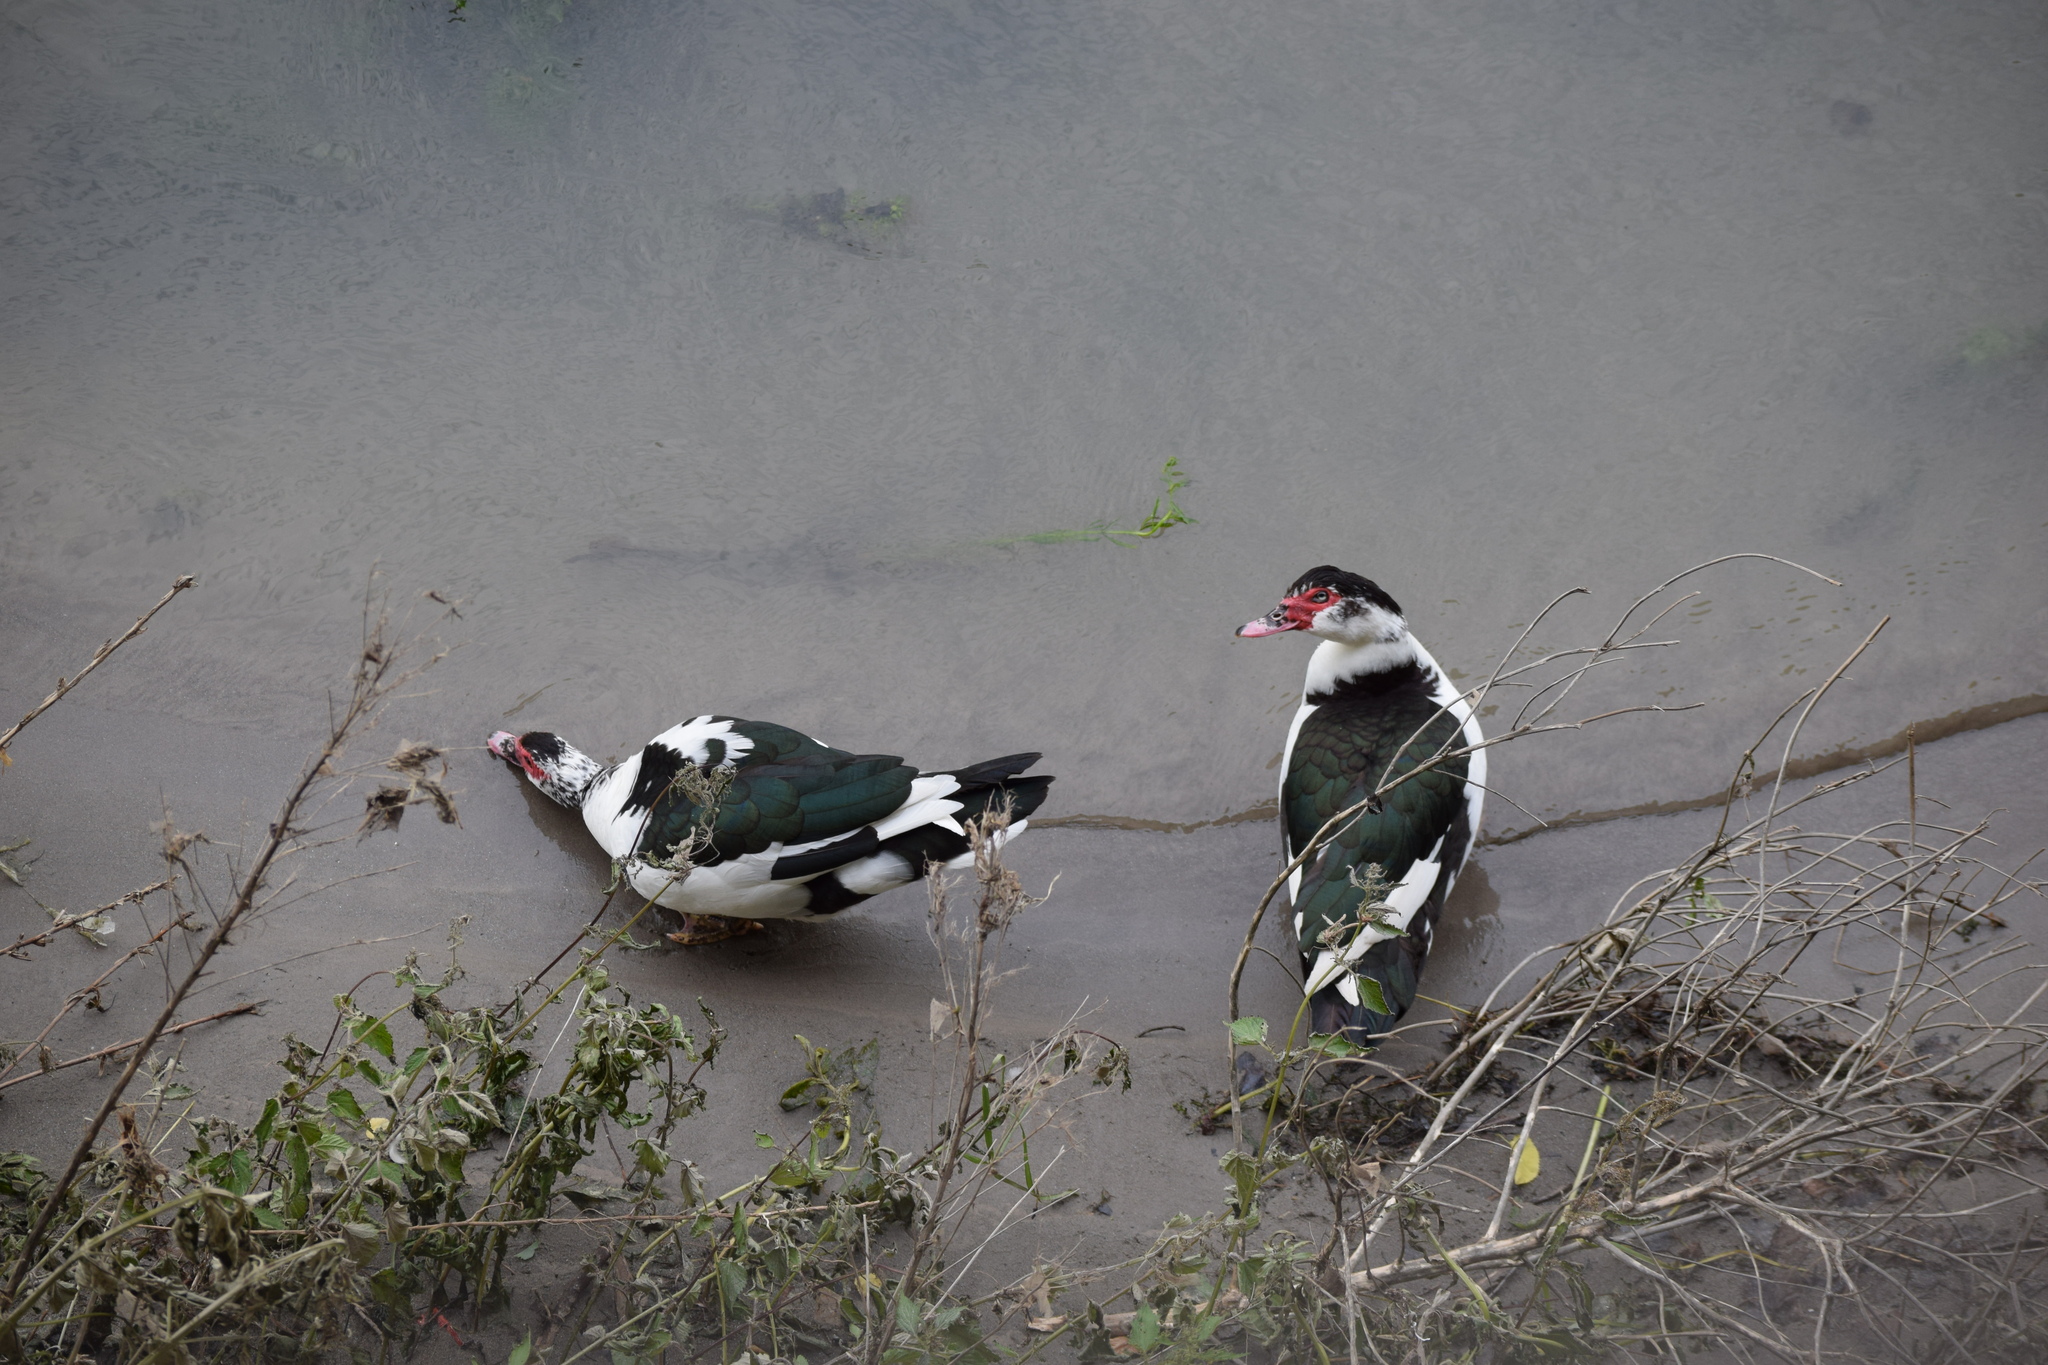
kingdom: Animalia
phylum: Chordata
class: Aves
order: Anseriformes
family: Anatidae
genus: Cairina
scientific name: Cairina moschata
